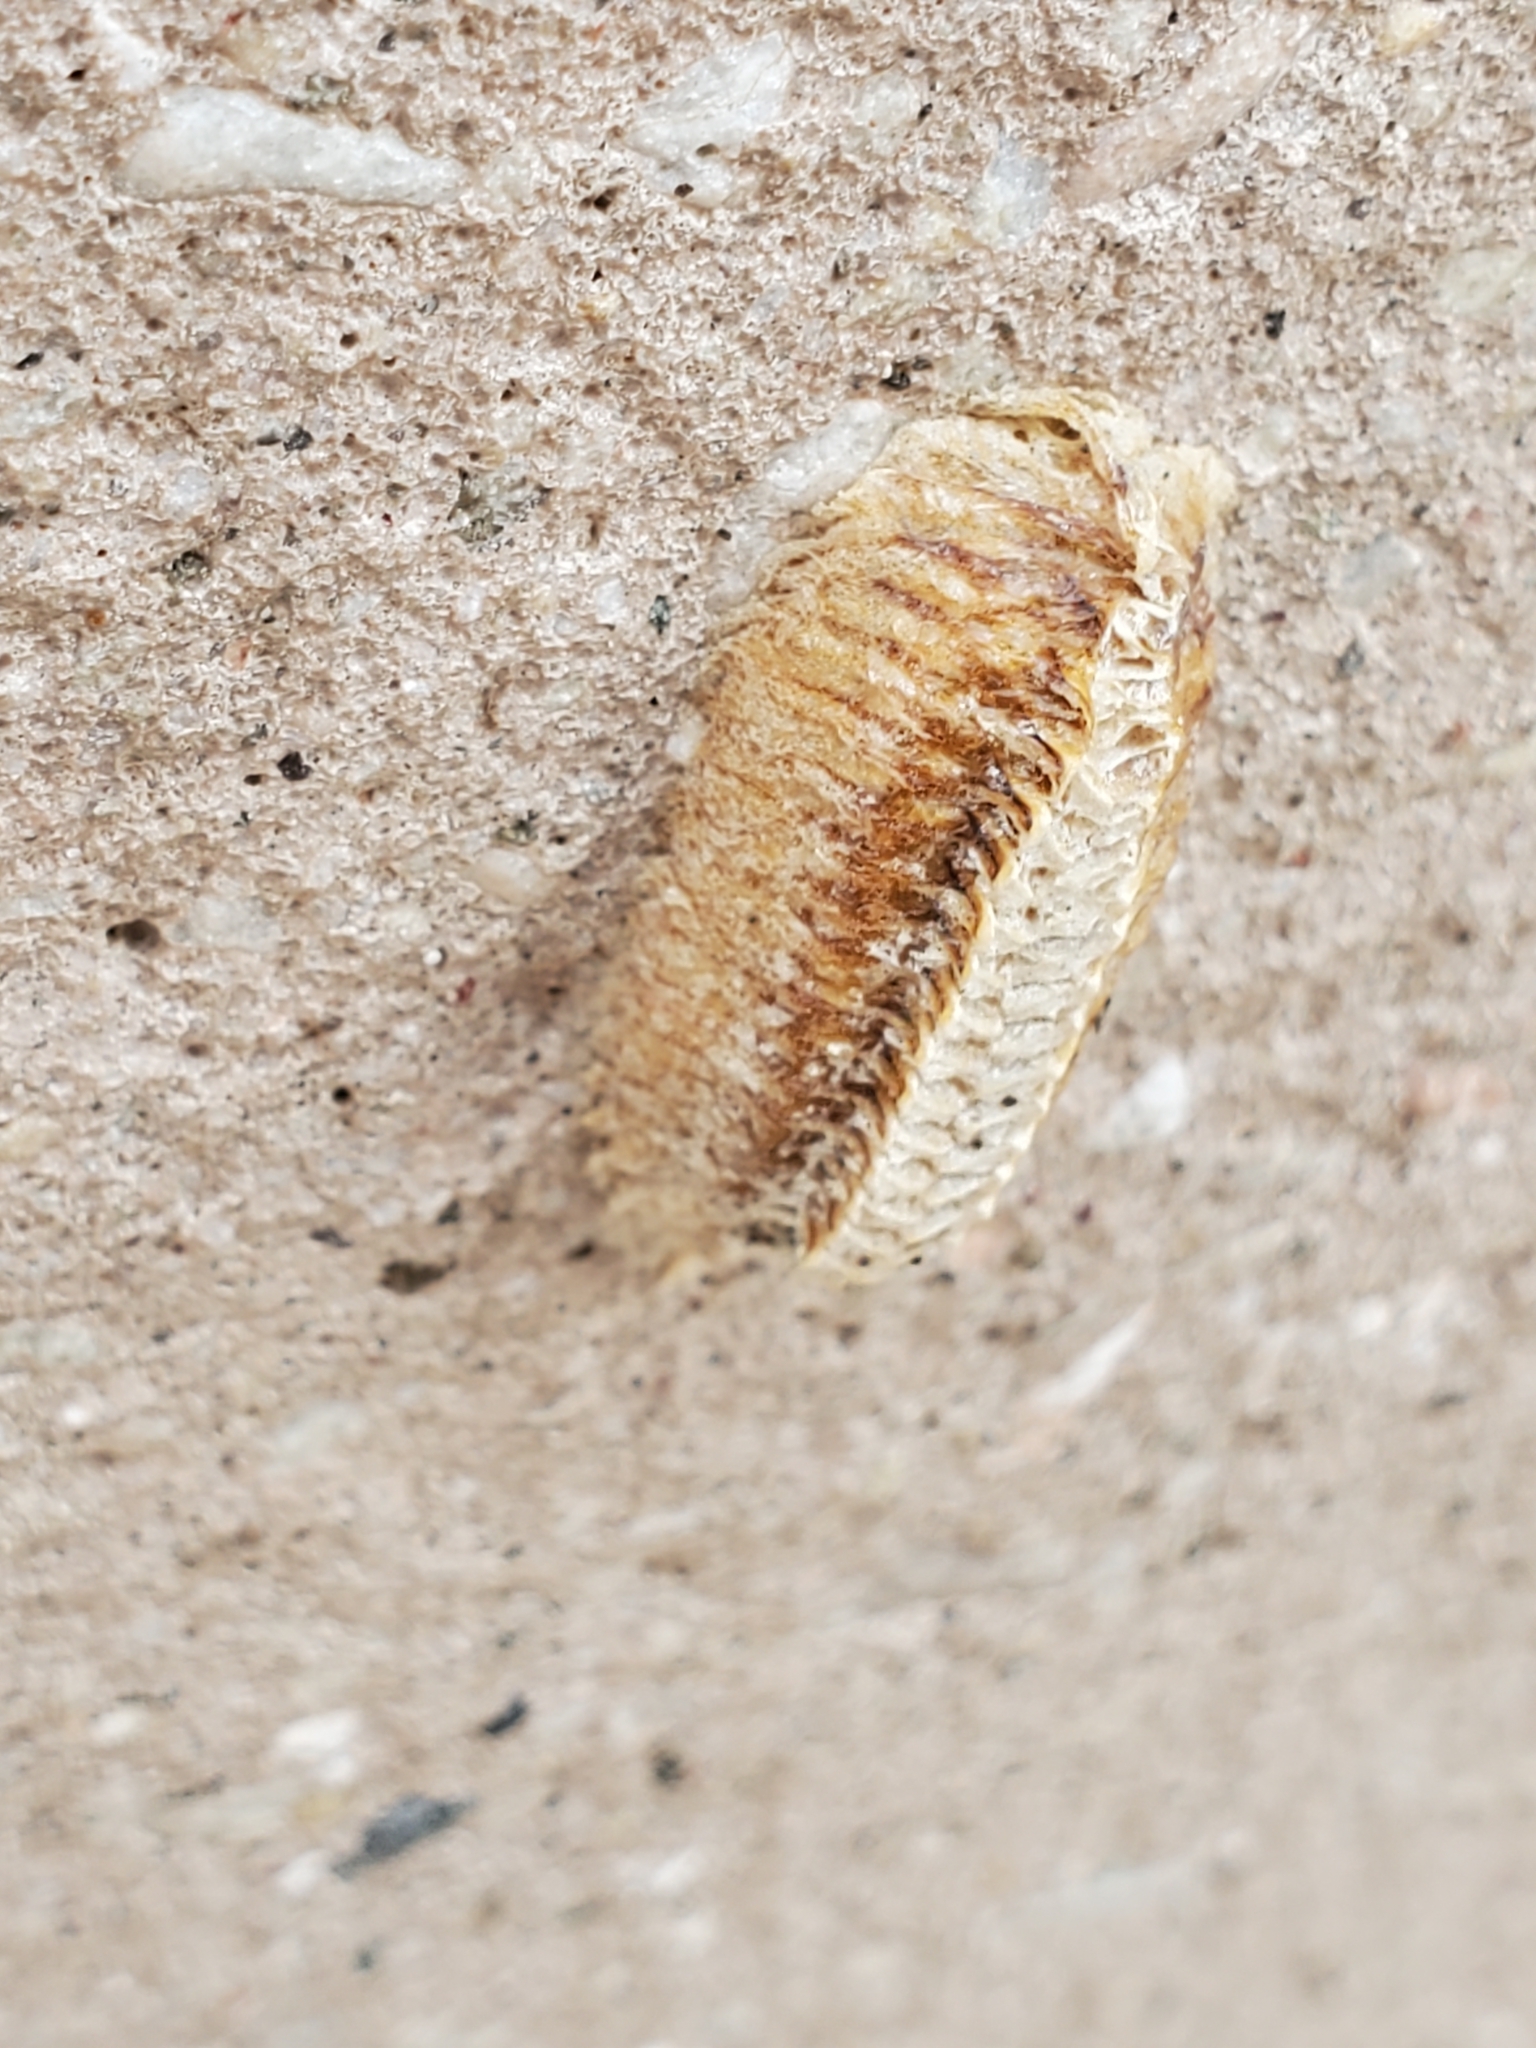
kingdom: Animalia
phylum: Arthropoda
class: Insecta
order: Mantodea
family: Mantidae
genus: Stagmomantis
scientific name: Stagmomantis carolina
